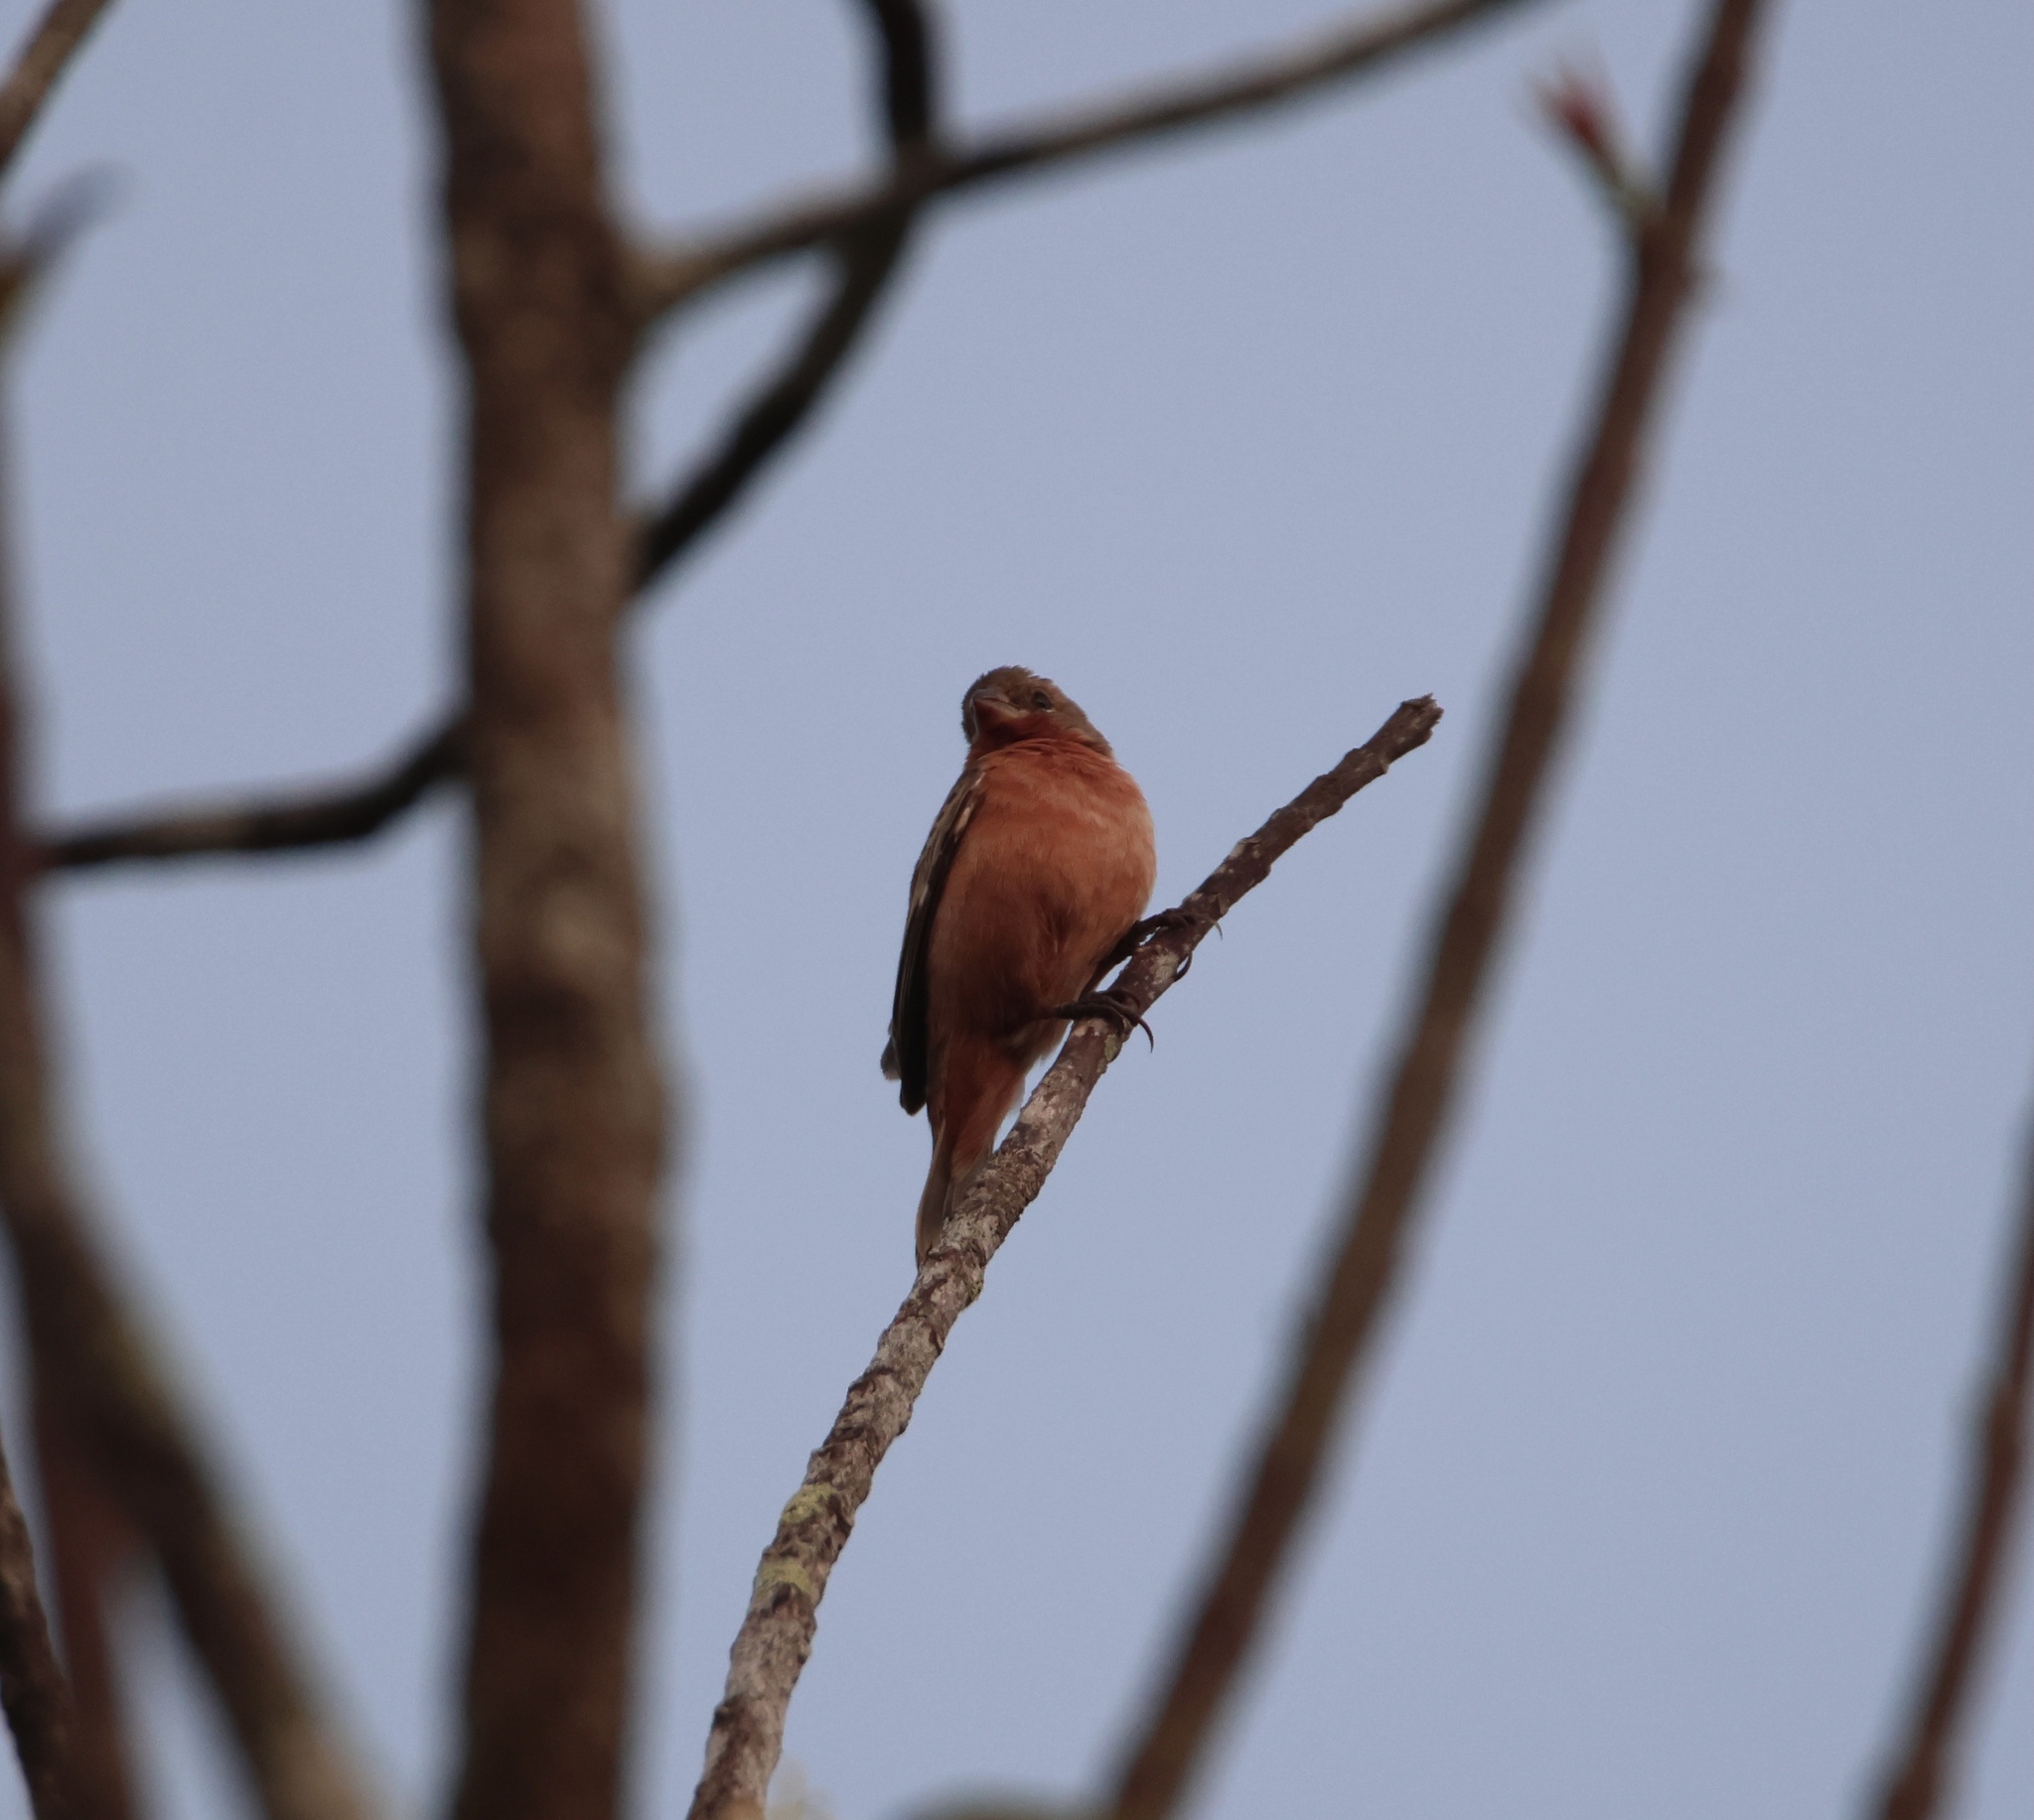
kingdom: Animalia
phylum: Chordata
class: Aves
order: Passeriformes
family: Thraupidae
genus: Sporophila
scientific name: Sporophila minuta
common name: Ruddy-breasted seedeater
